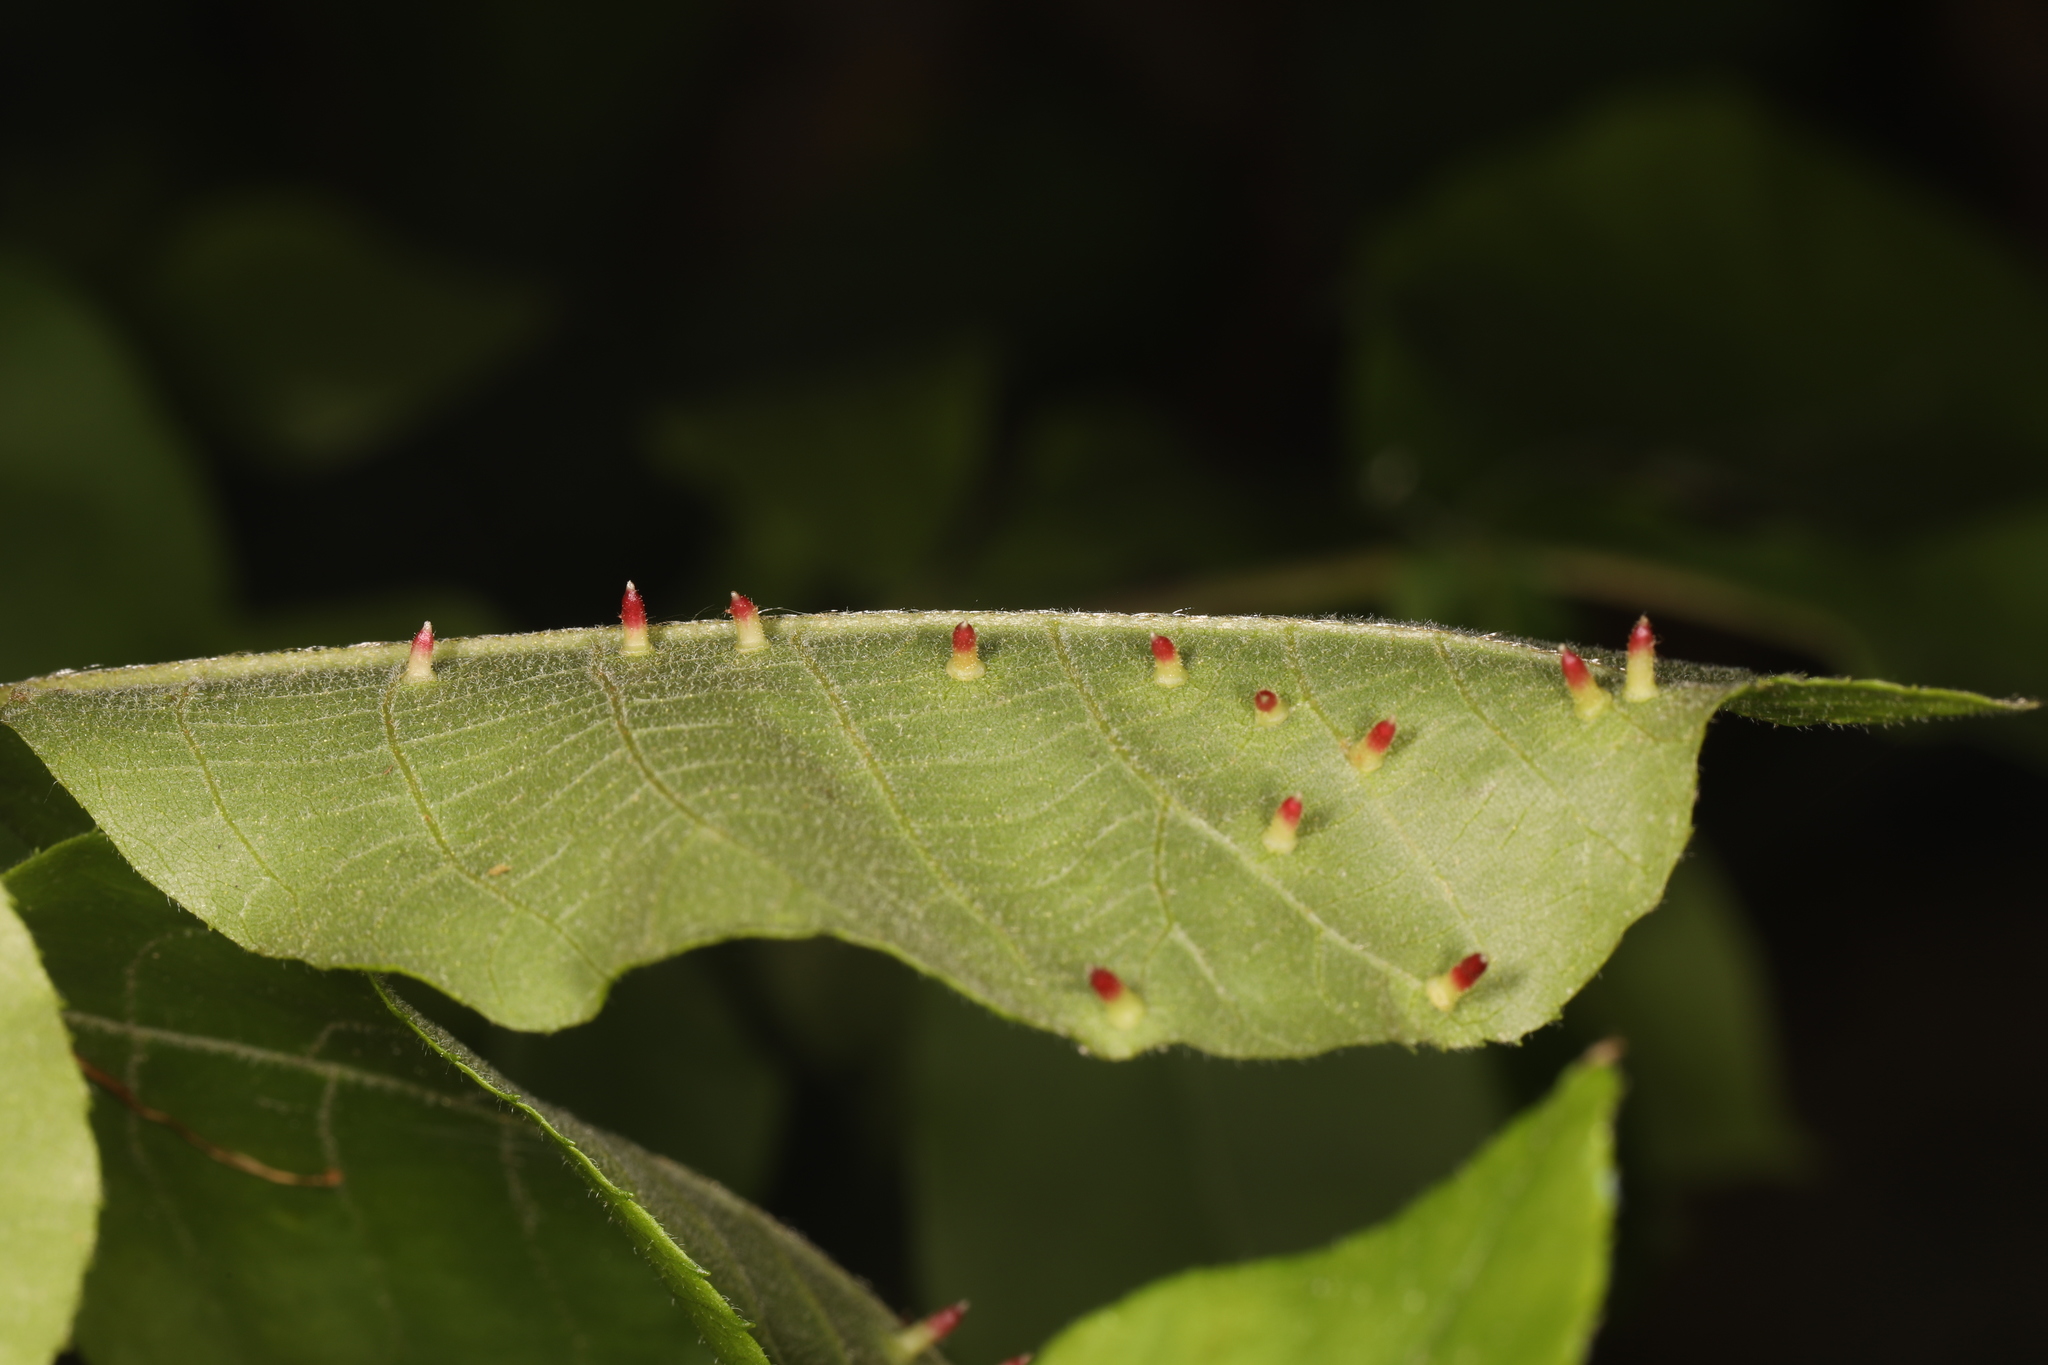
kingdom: Animalia
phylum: Arthropoda
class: Insecta
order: Diptera
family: Cecidomyiidae
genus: Caryomyia
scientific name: Caryomyia striolata
